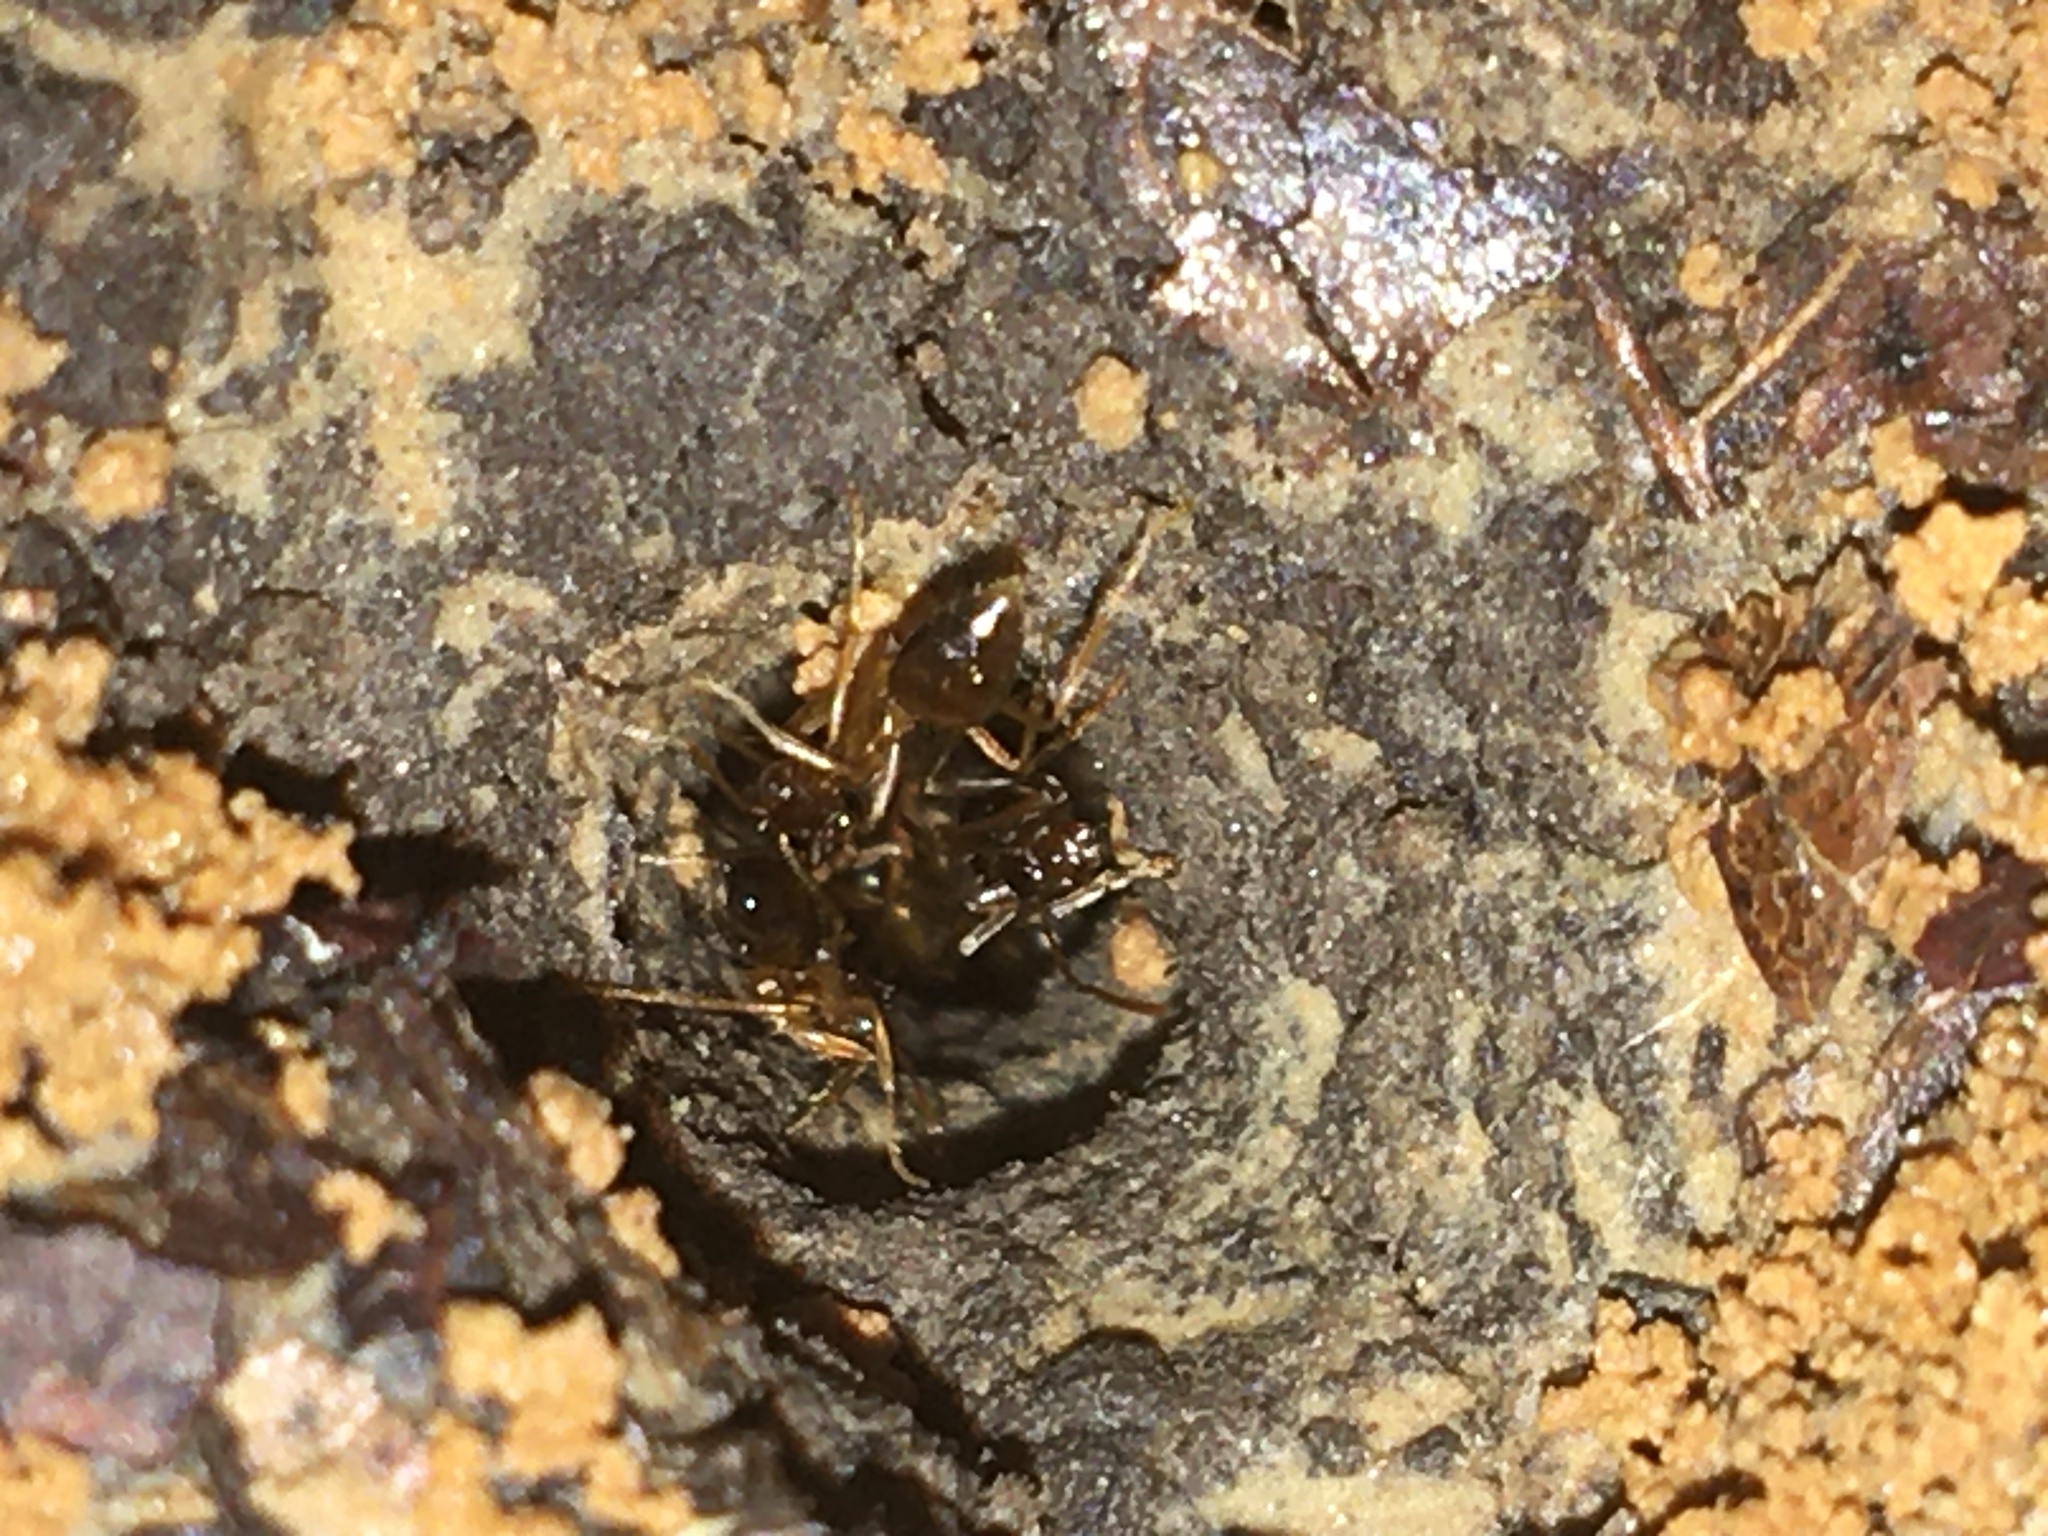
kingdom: Animalia
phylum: Arthropoda
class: Insecta
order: Hymenoptera
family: Formicidae
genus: Prenolepis
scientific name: Prenolepis imparis
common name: Small honey ant
